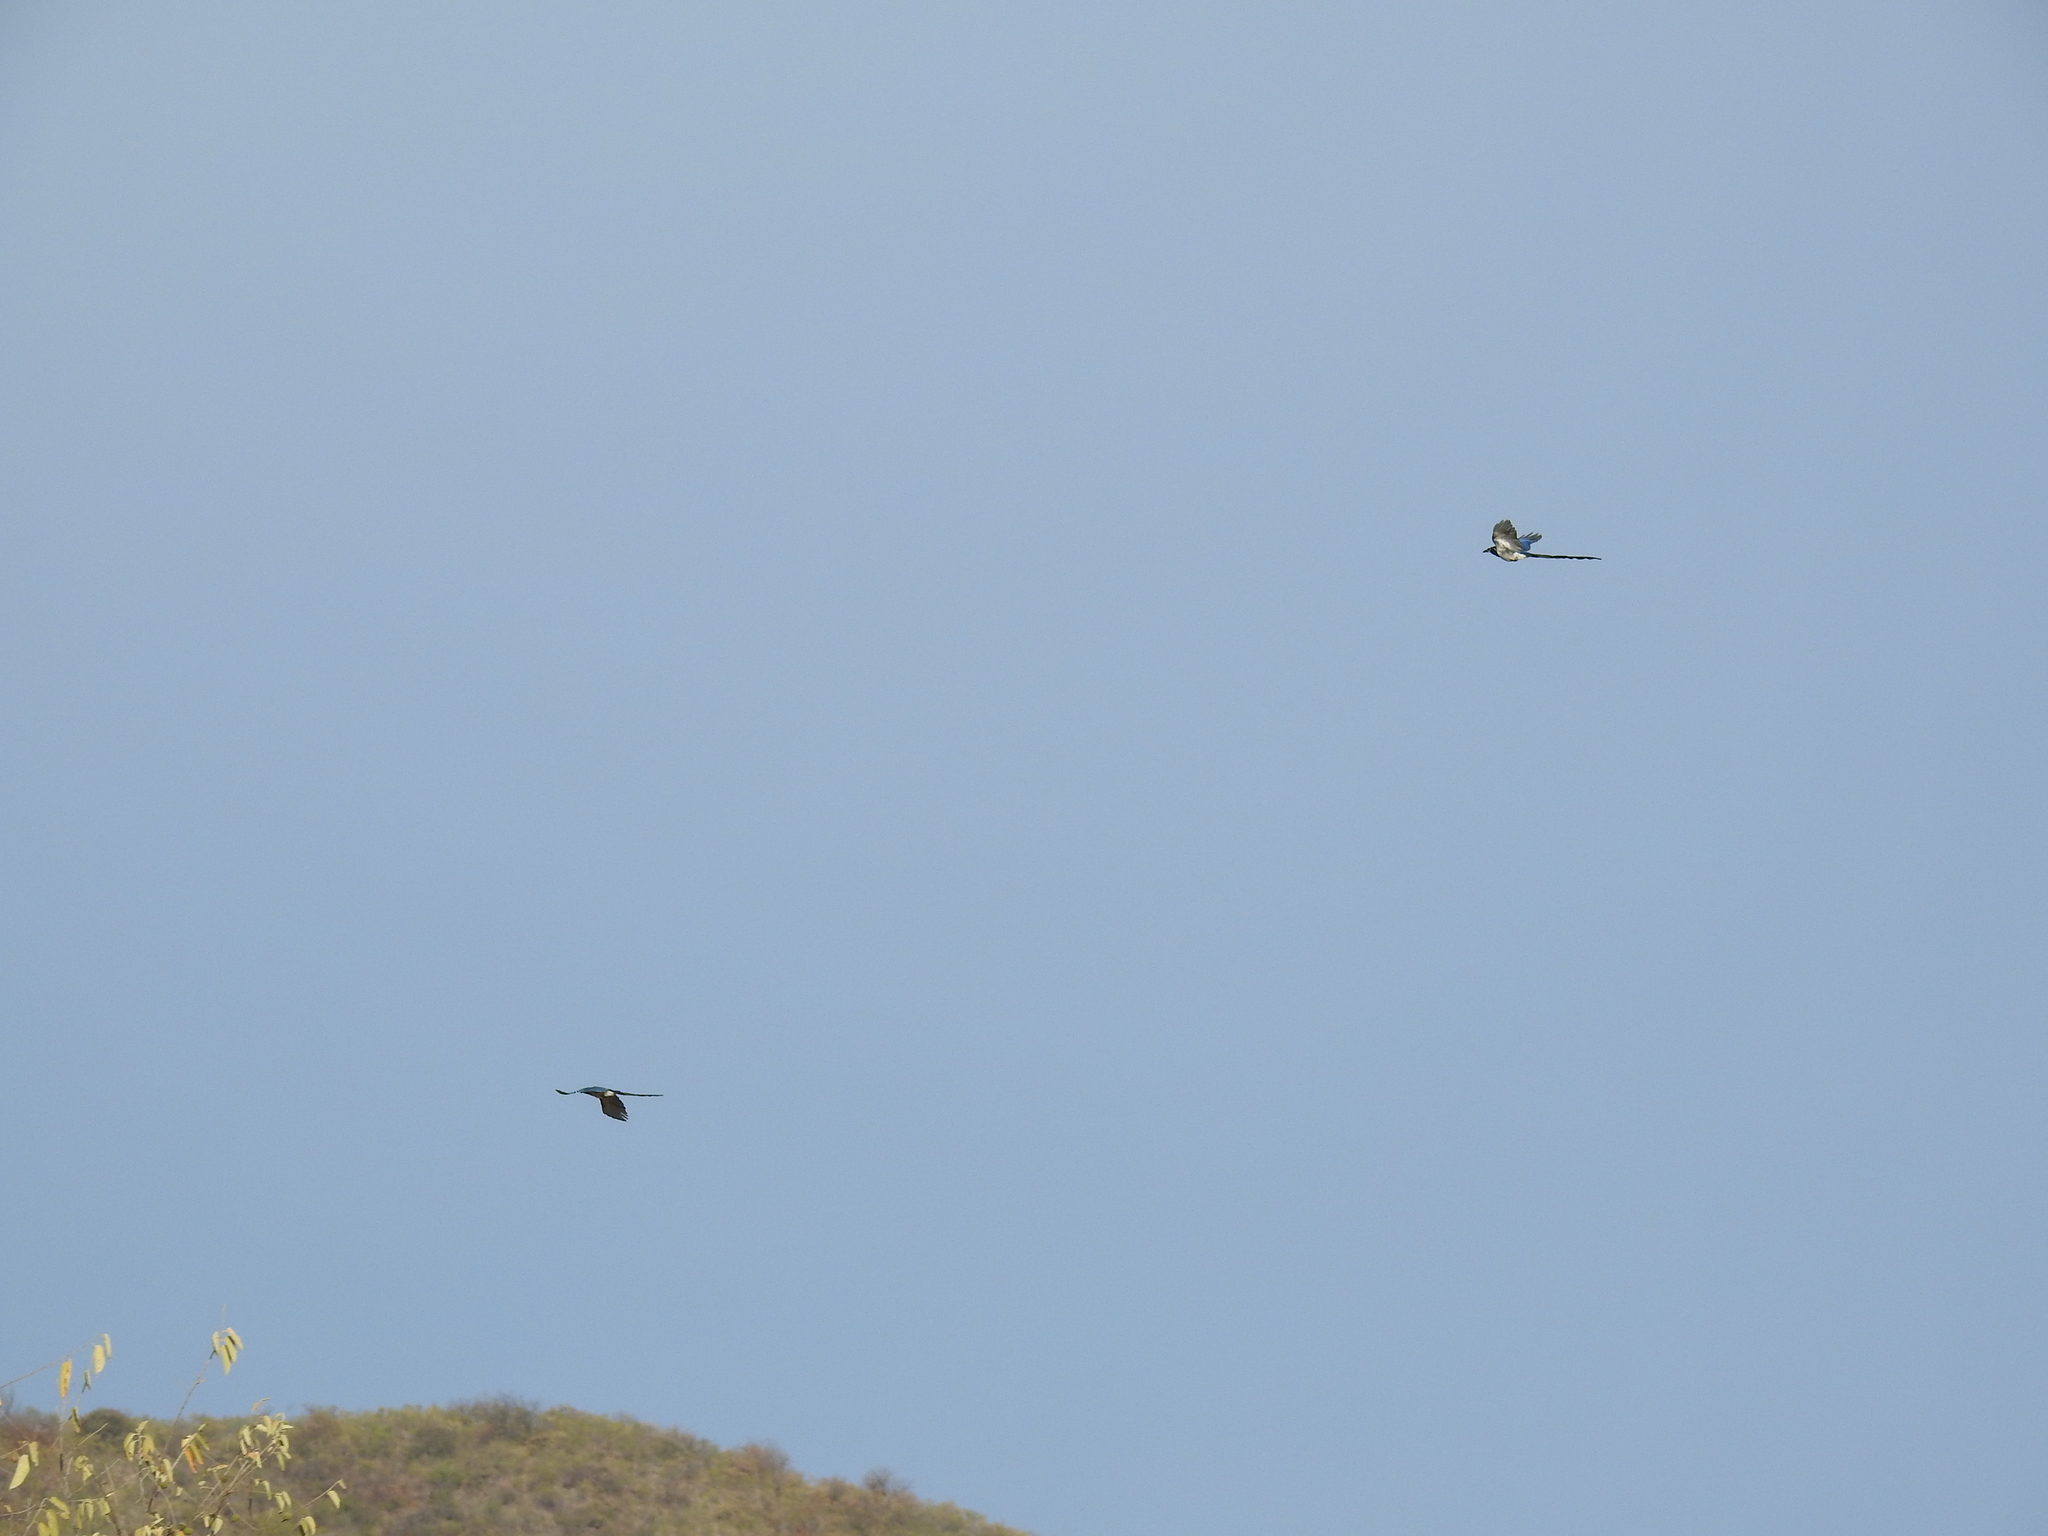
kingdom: Animalia
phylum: Chordata
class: Aves
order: Passeriformes
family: Corvidae
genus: Calocitta
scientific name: Calocitta colliei
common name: Black-throated magpie-jay
